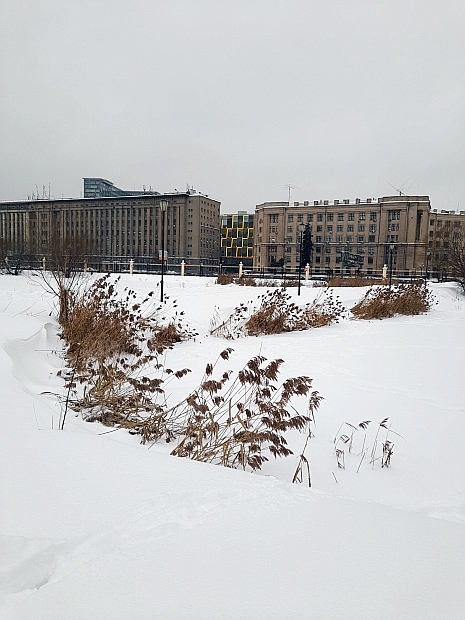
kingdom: Plantae
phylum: Tracheophyta
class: Liliopsida
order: Poales
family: Poaceae
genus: Phragmites
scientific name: Phragmites australis
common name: Common reed
